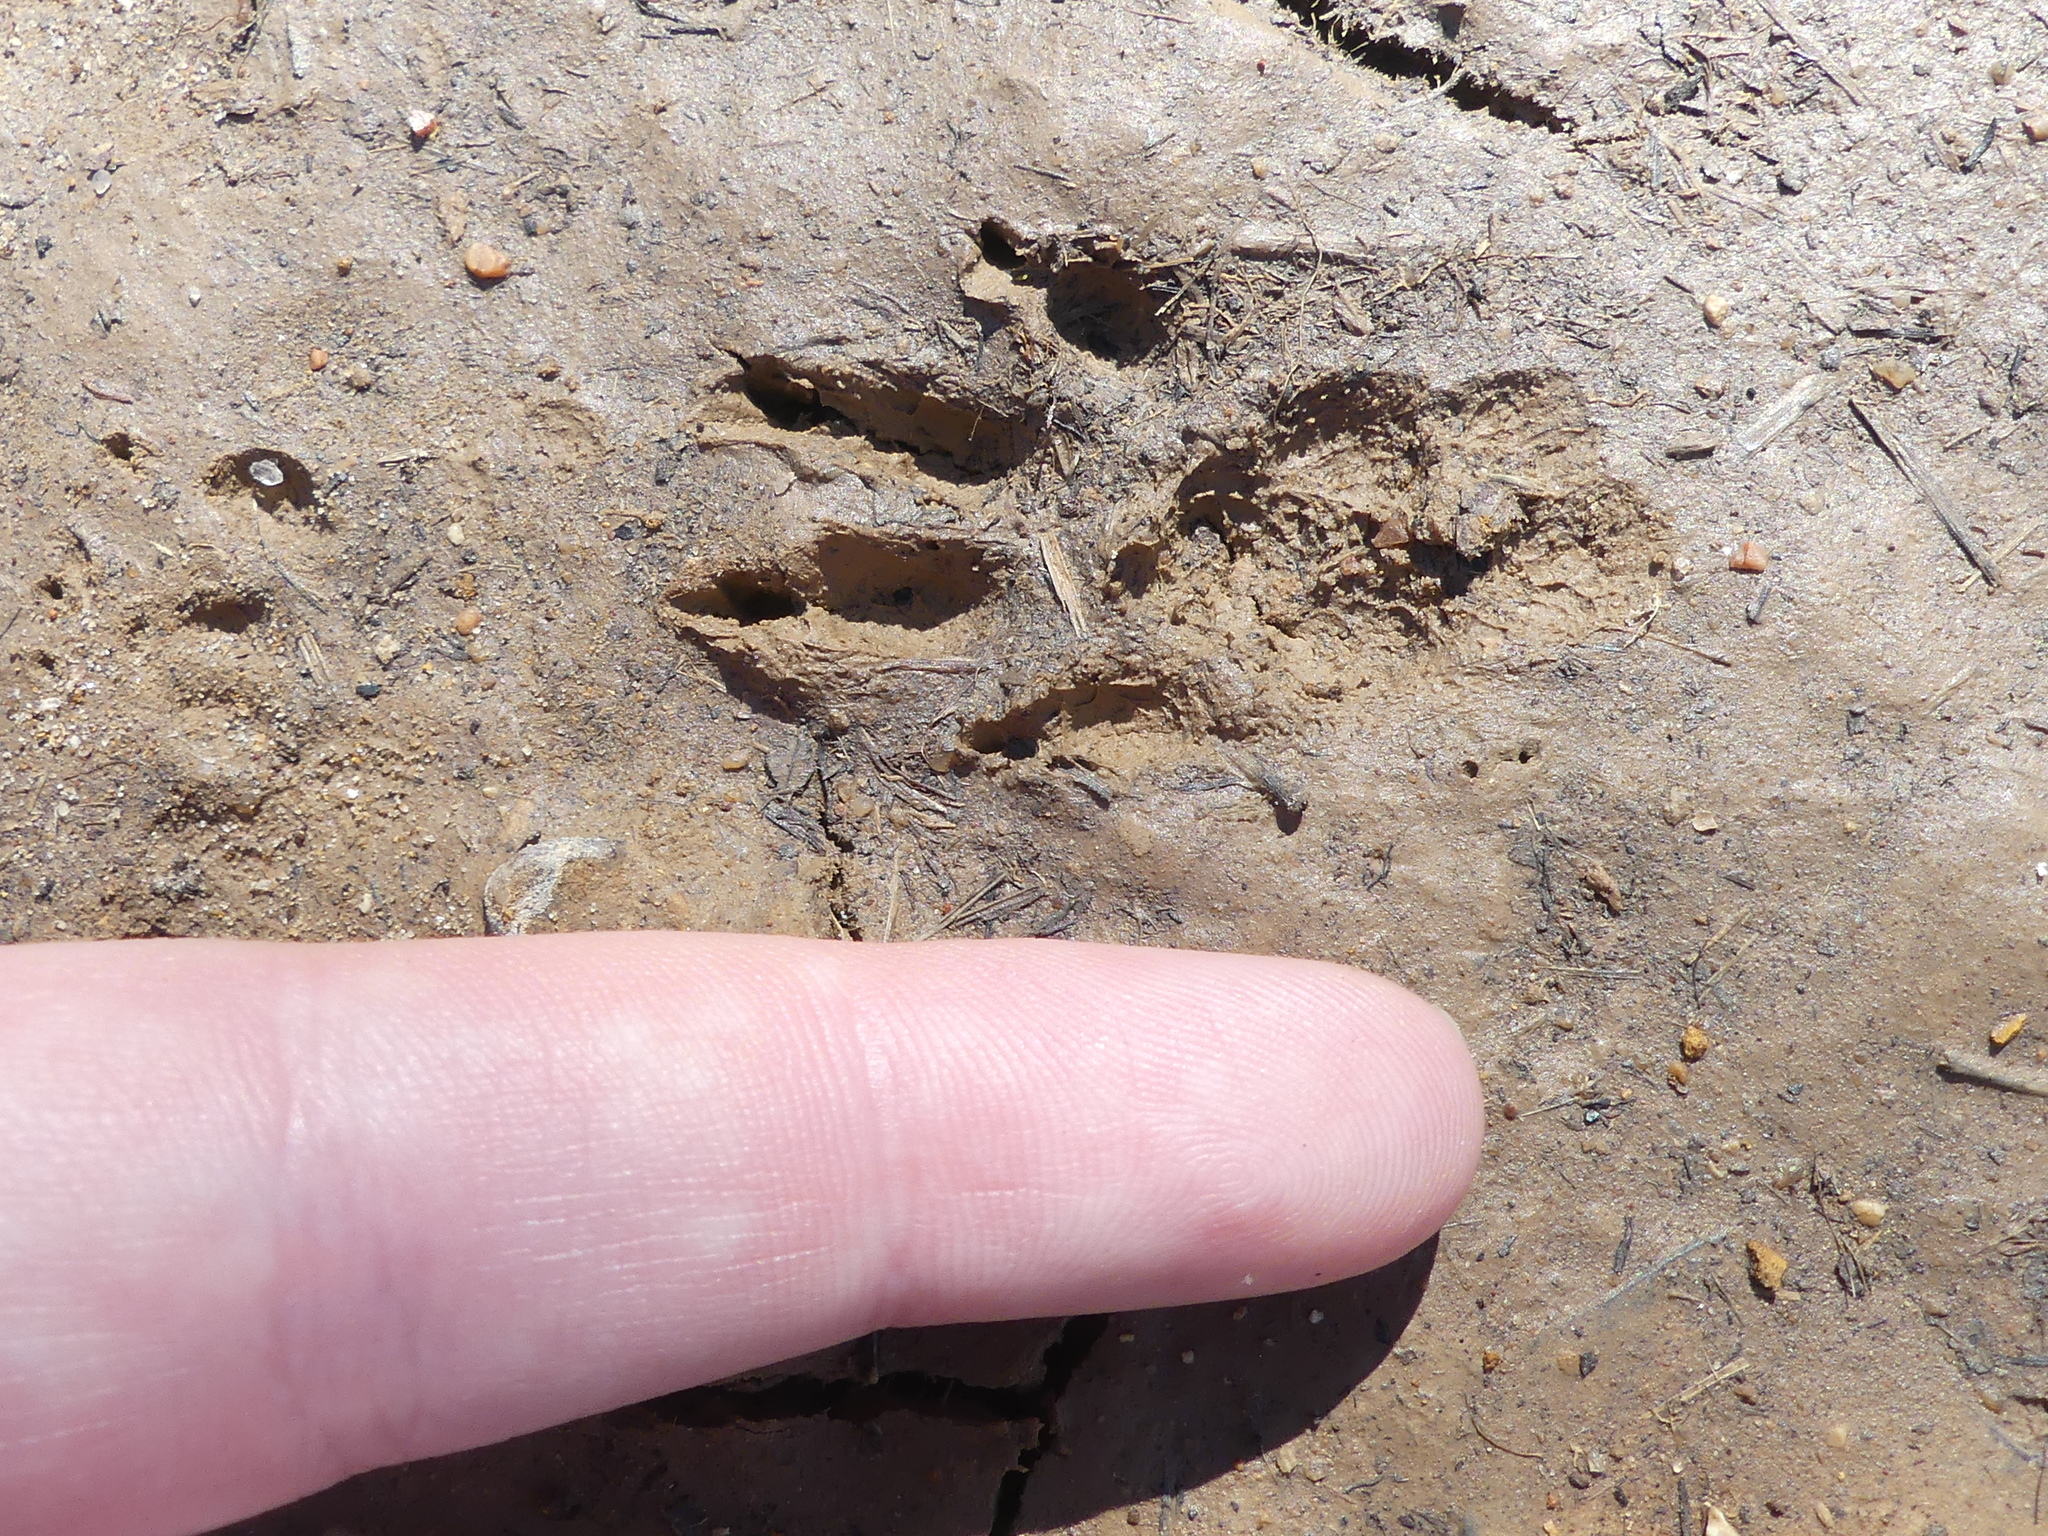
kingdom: Animalia
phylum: Chordata
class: Mammalia
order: Rodentia
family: Sciuridae
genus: Sciurus
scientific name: Sciurus niger
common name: Fox squirrel
